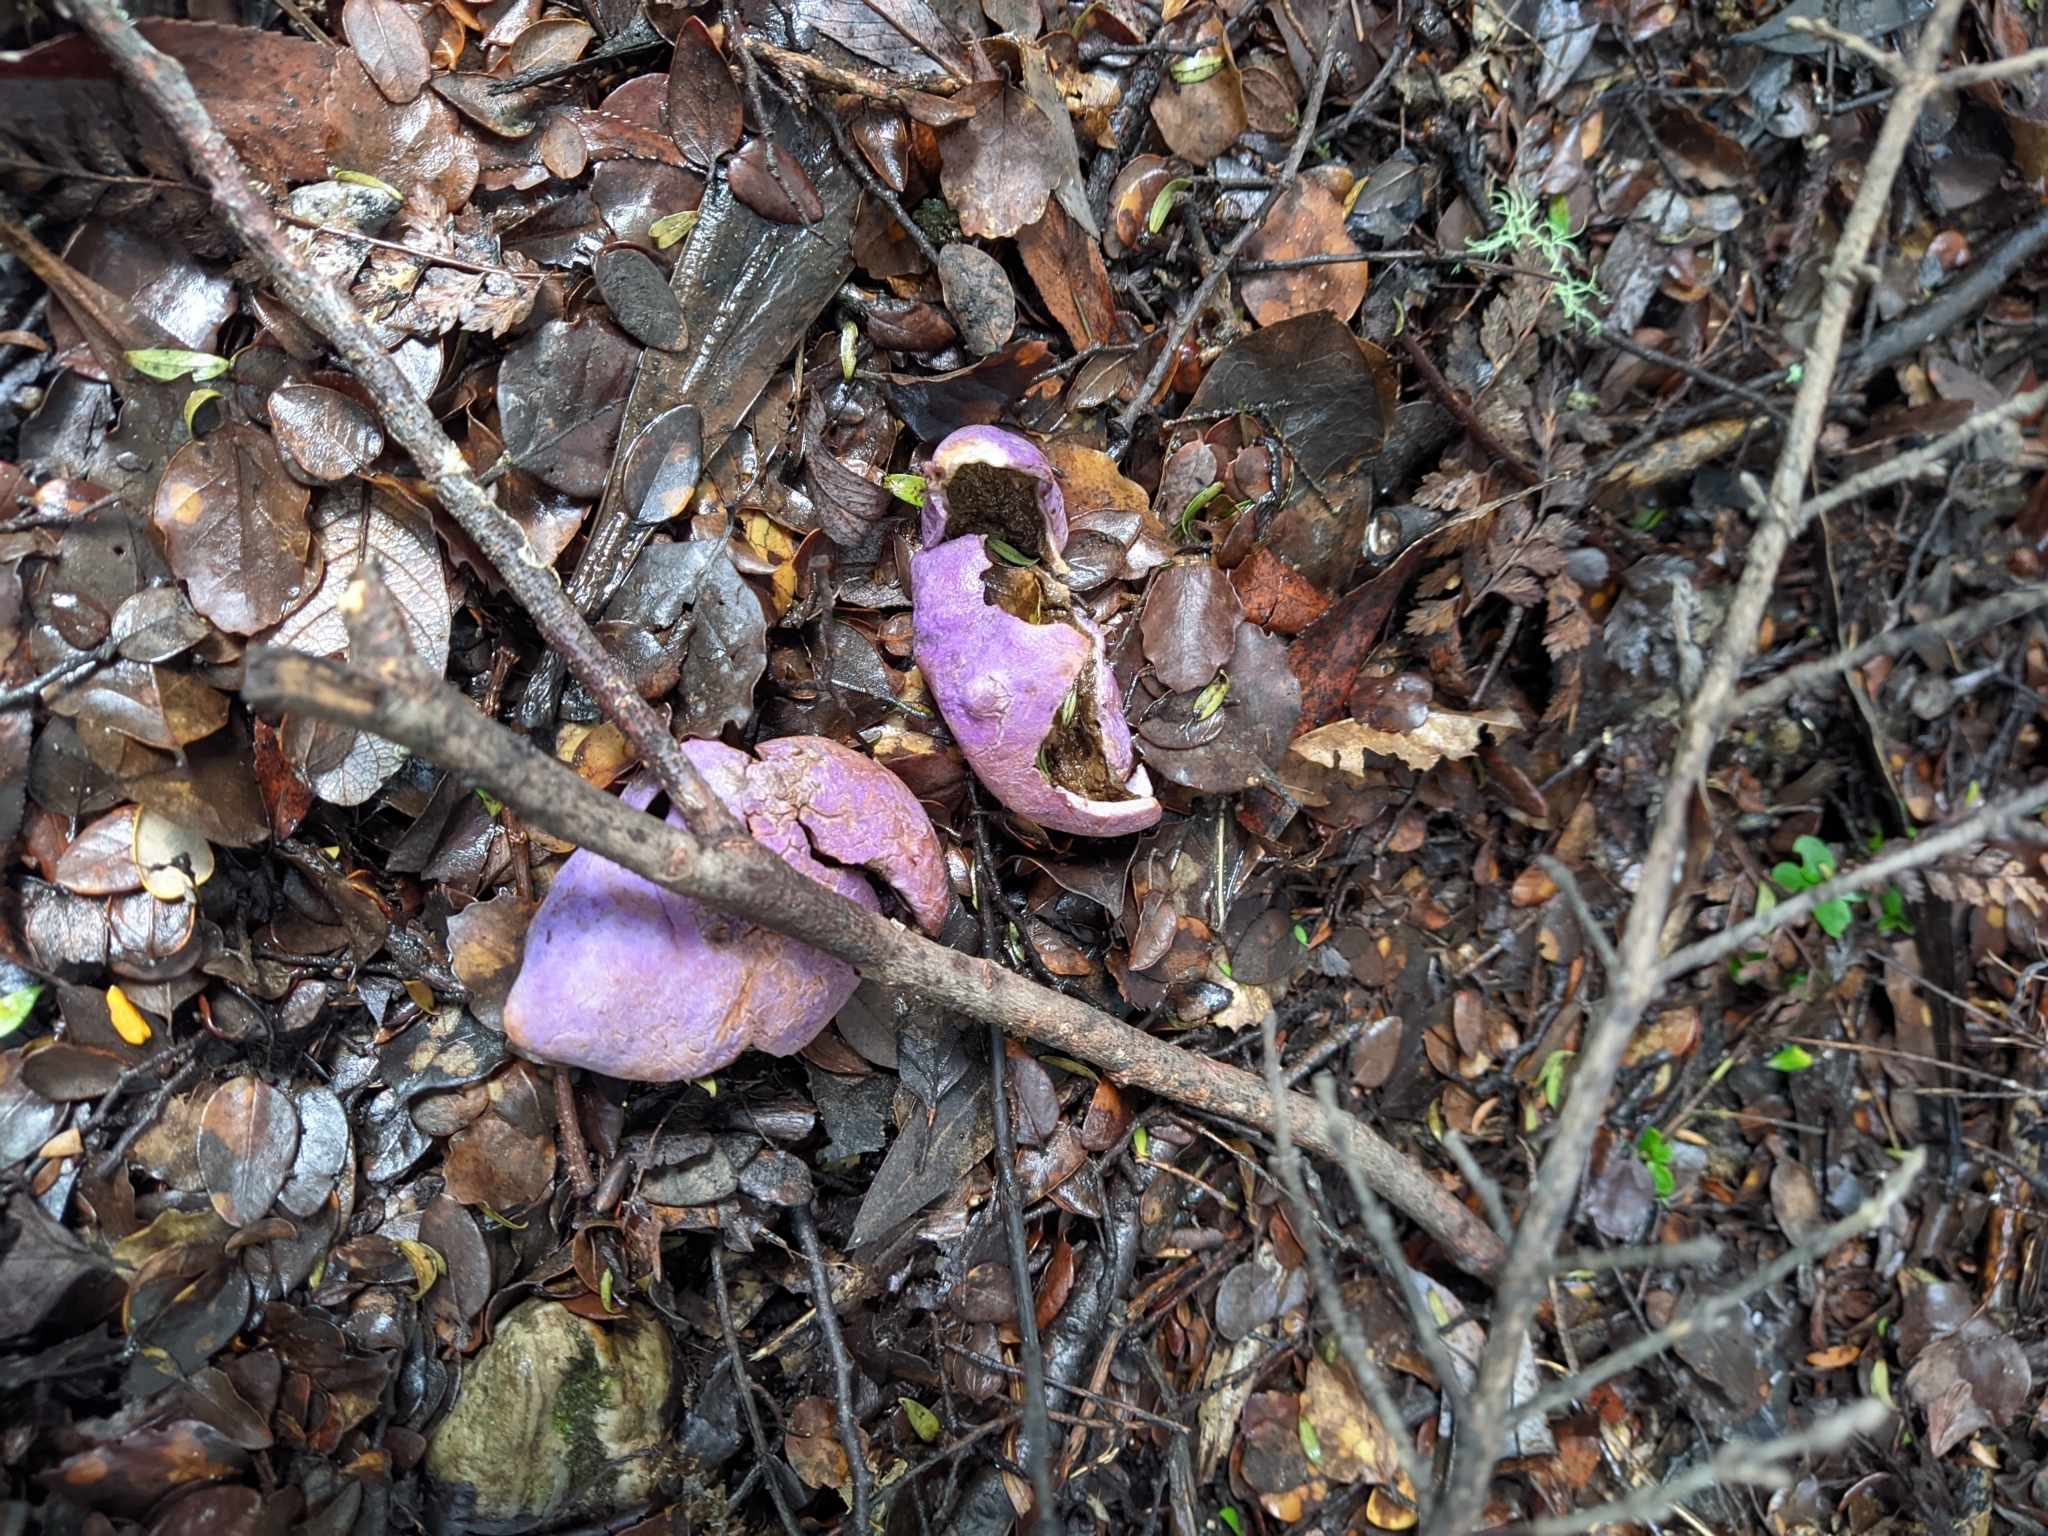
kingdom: Fungi
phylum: Basidiomycota
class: Agaricomycetes
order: Hysterangiales
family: Gallaceaceae
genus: Gallacea
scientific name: Gallacea scleroderma
